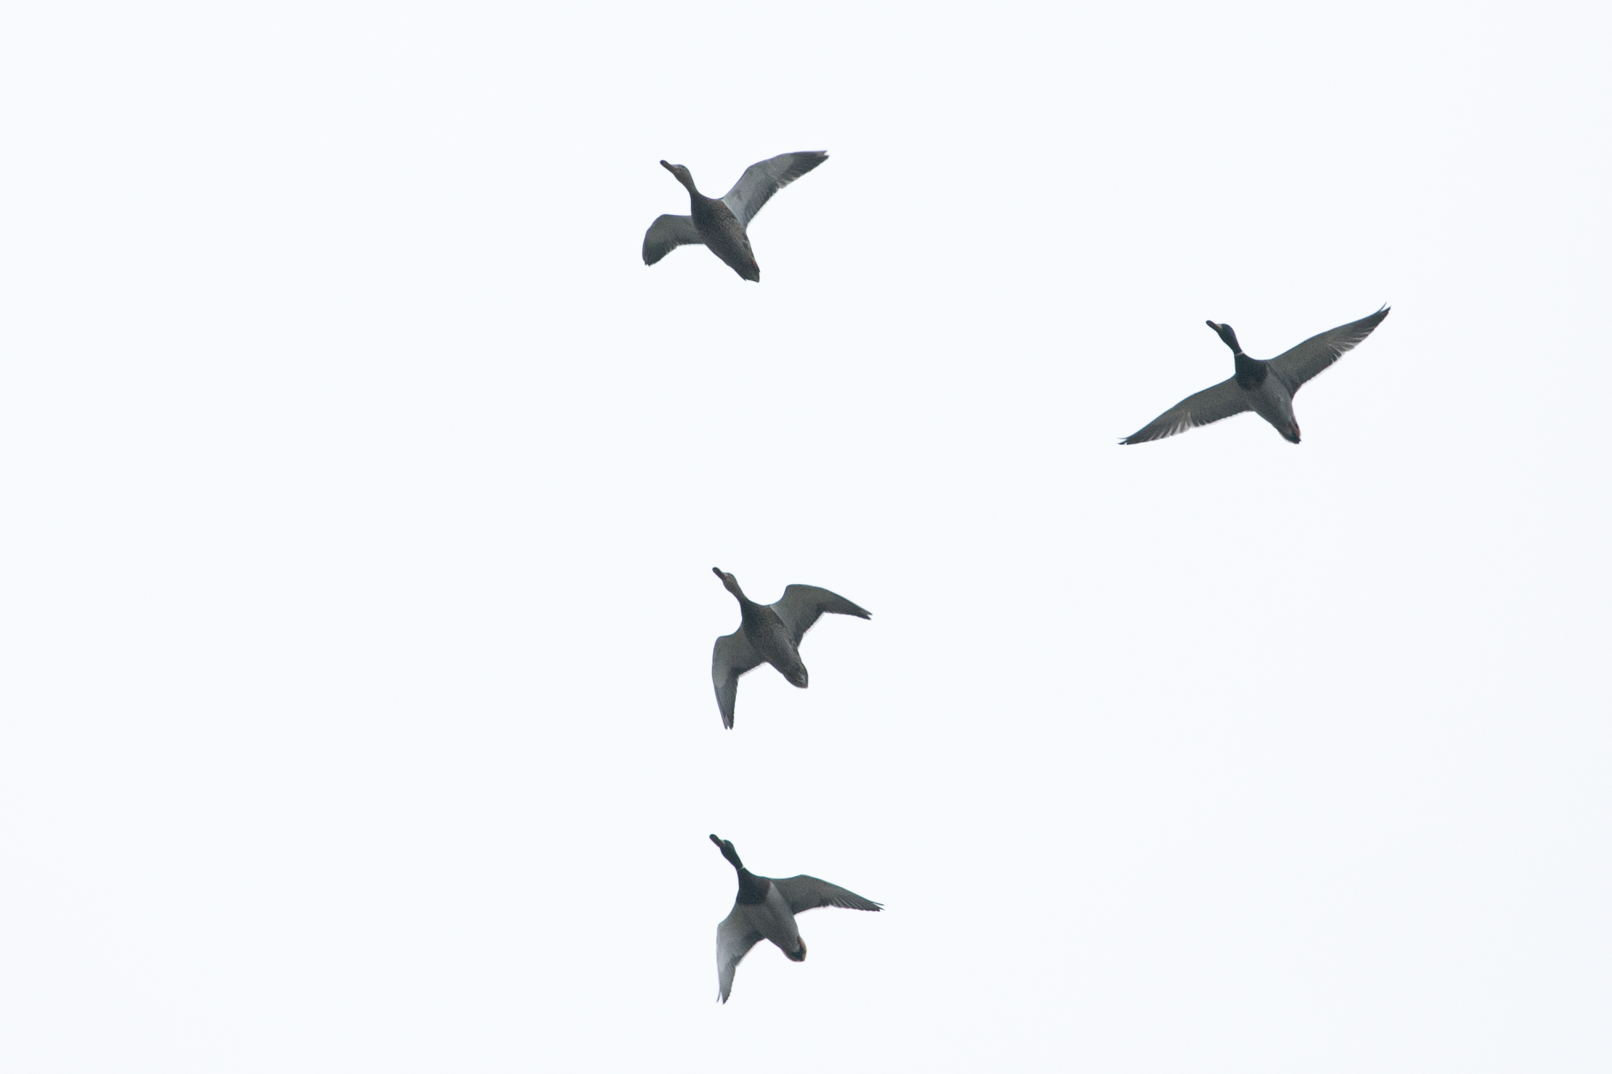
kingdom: Animalia
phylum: Chordata
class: Aves
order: Anseriformes
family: Anatidae
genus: Anas
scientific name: Anas platyrhynchos
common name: Mallard
